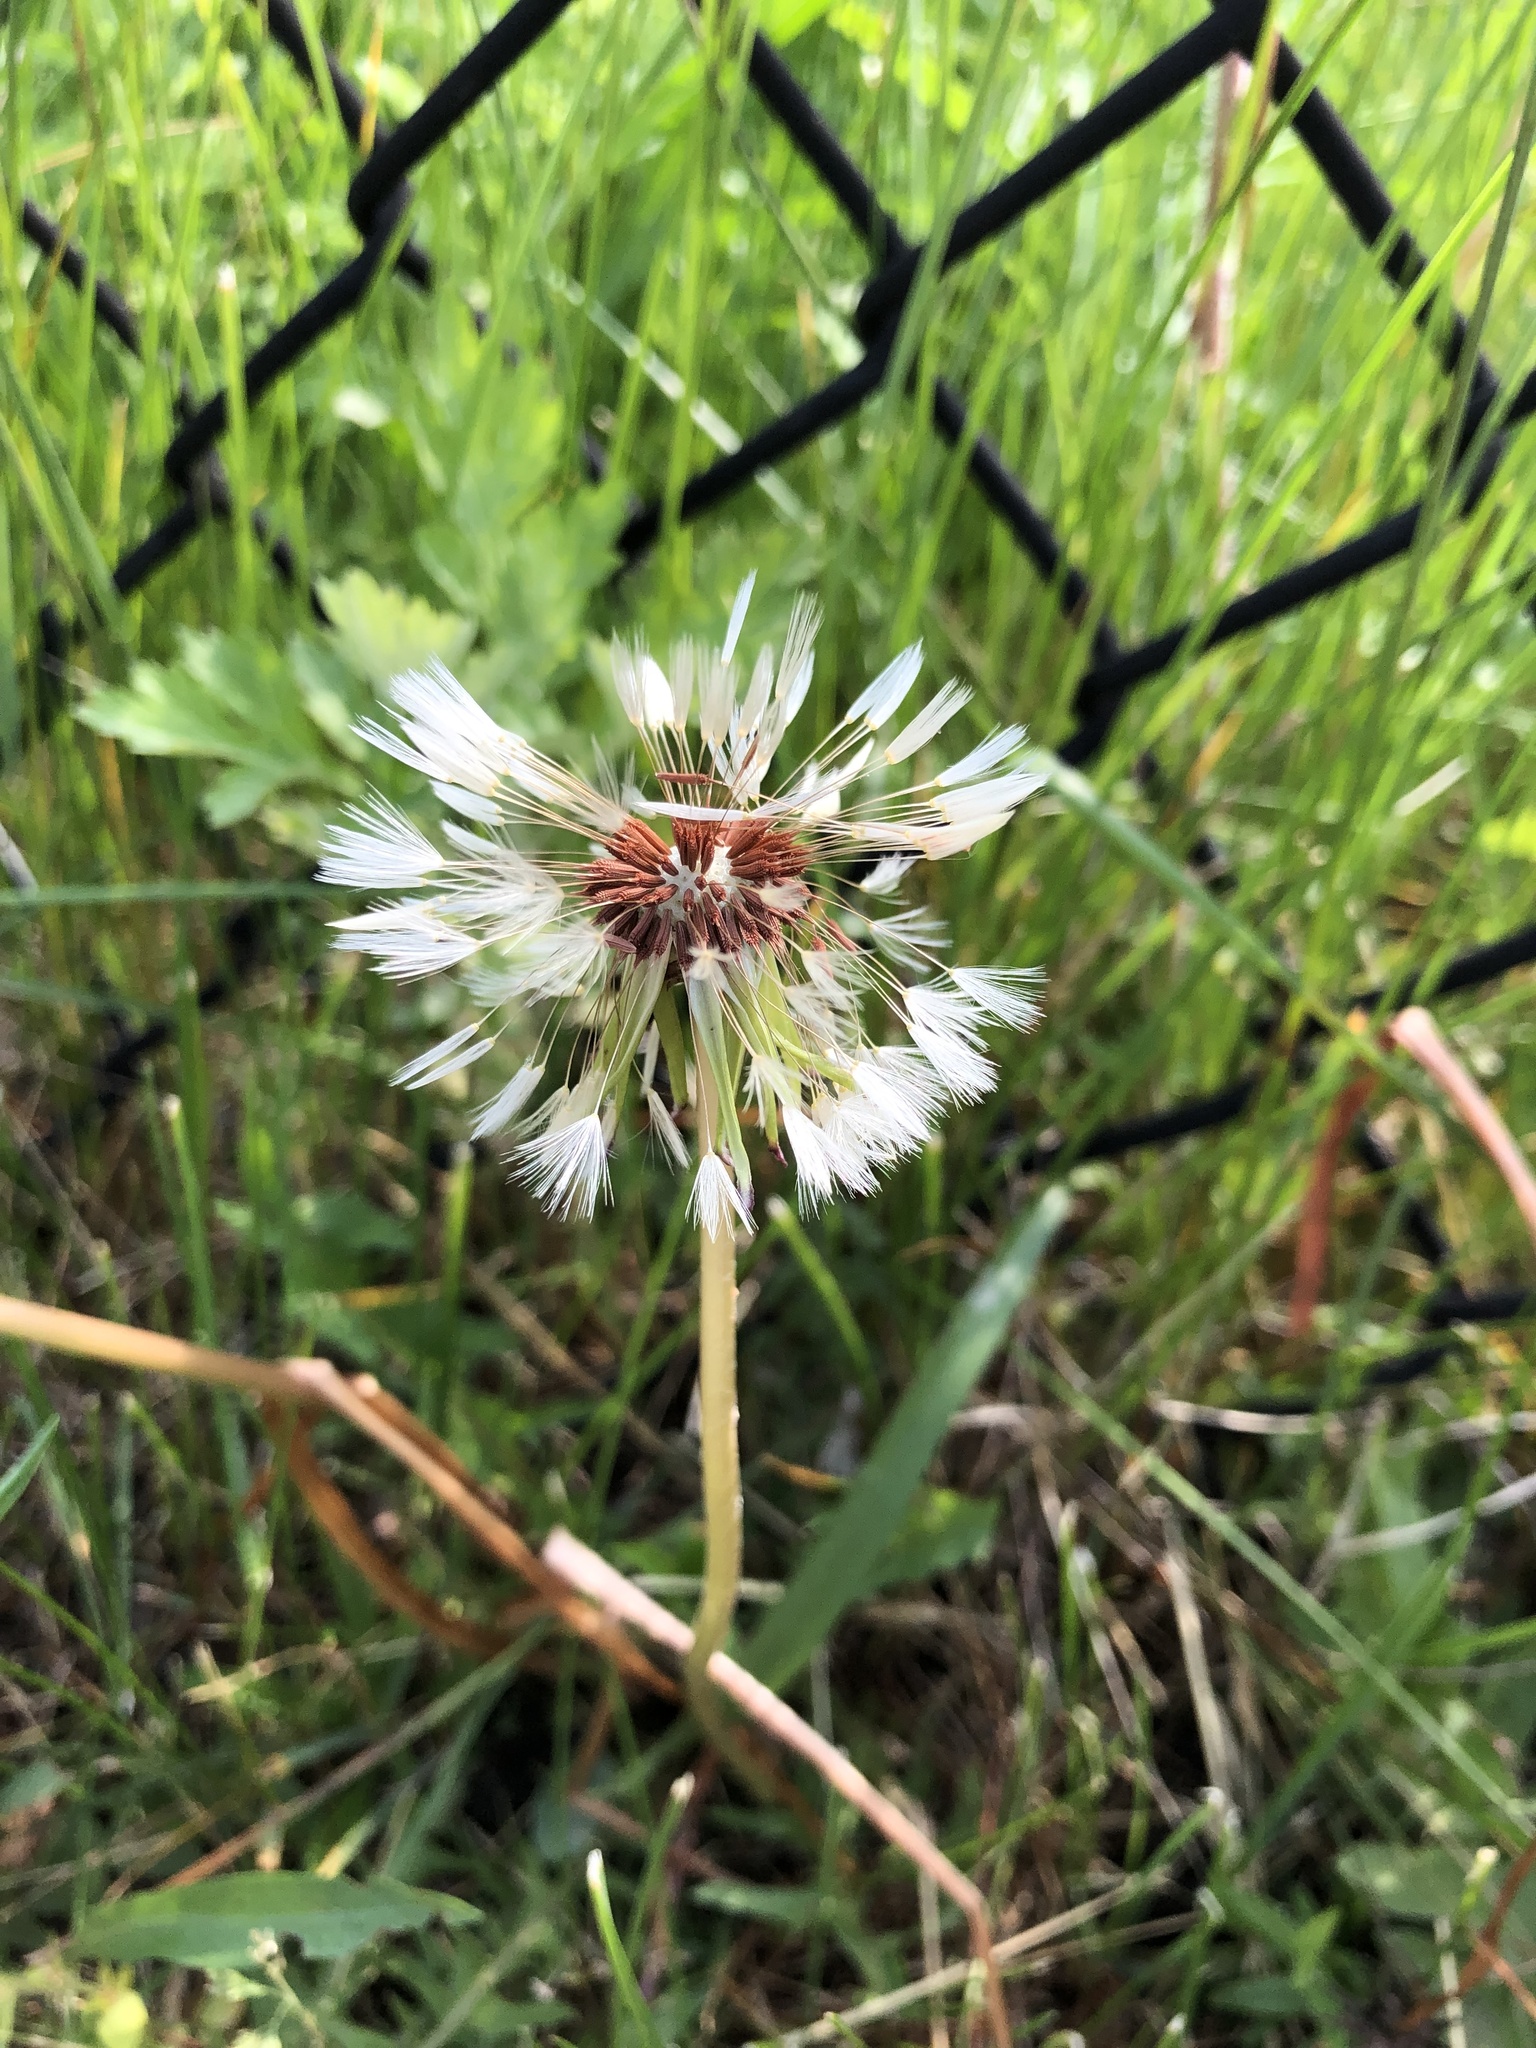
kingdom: Plantae
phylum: Tracheophyta
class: Magnoliopsida
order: Asterales
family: Asteraceae
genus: Taraxacum
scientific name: Taraxacum erythrospermum
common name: Rock dandelion
